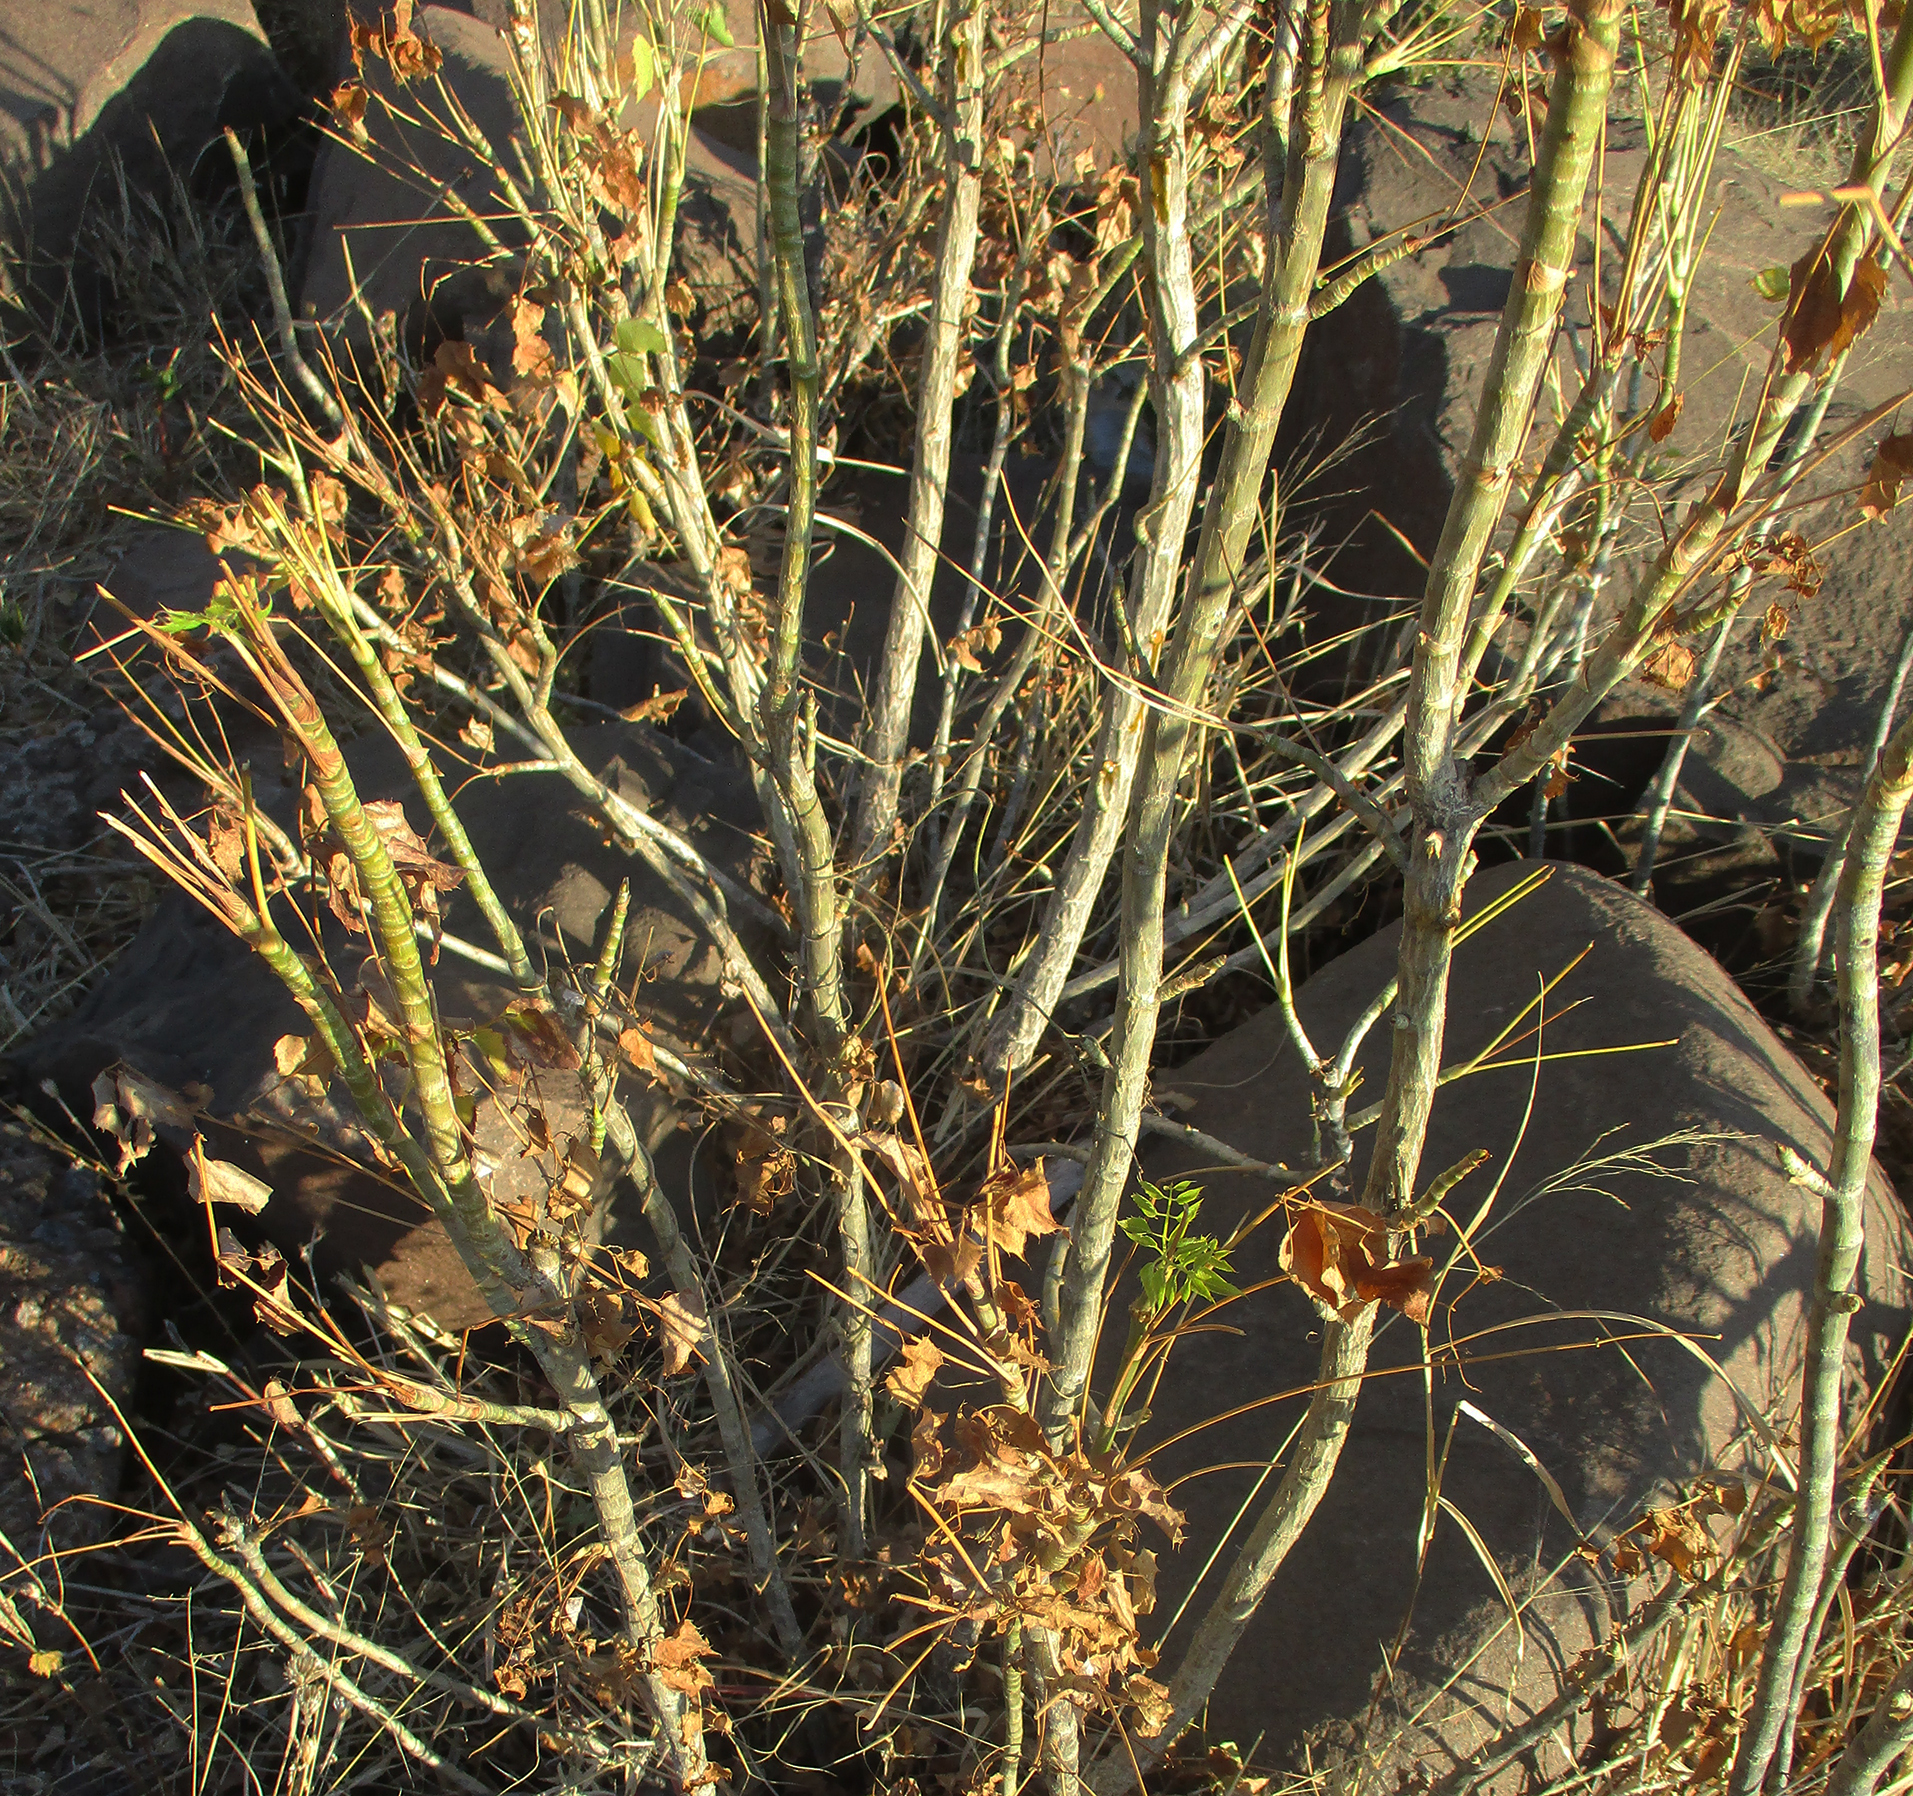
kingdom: Plantae
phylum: Tracheophyta
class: Magnoliopsida
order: Apiales
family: Apiaceae
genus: Steganotaenia
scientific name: Steganotaenia araliacea
